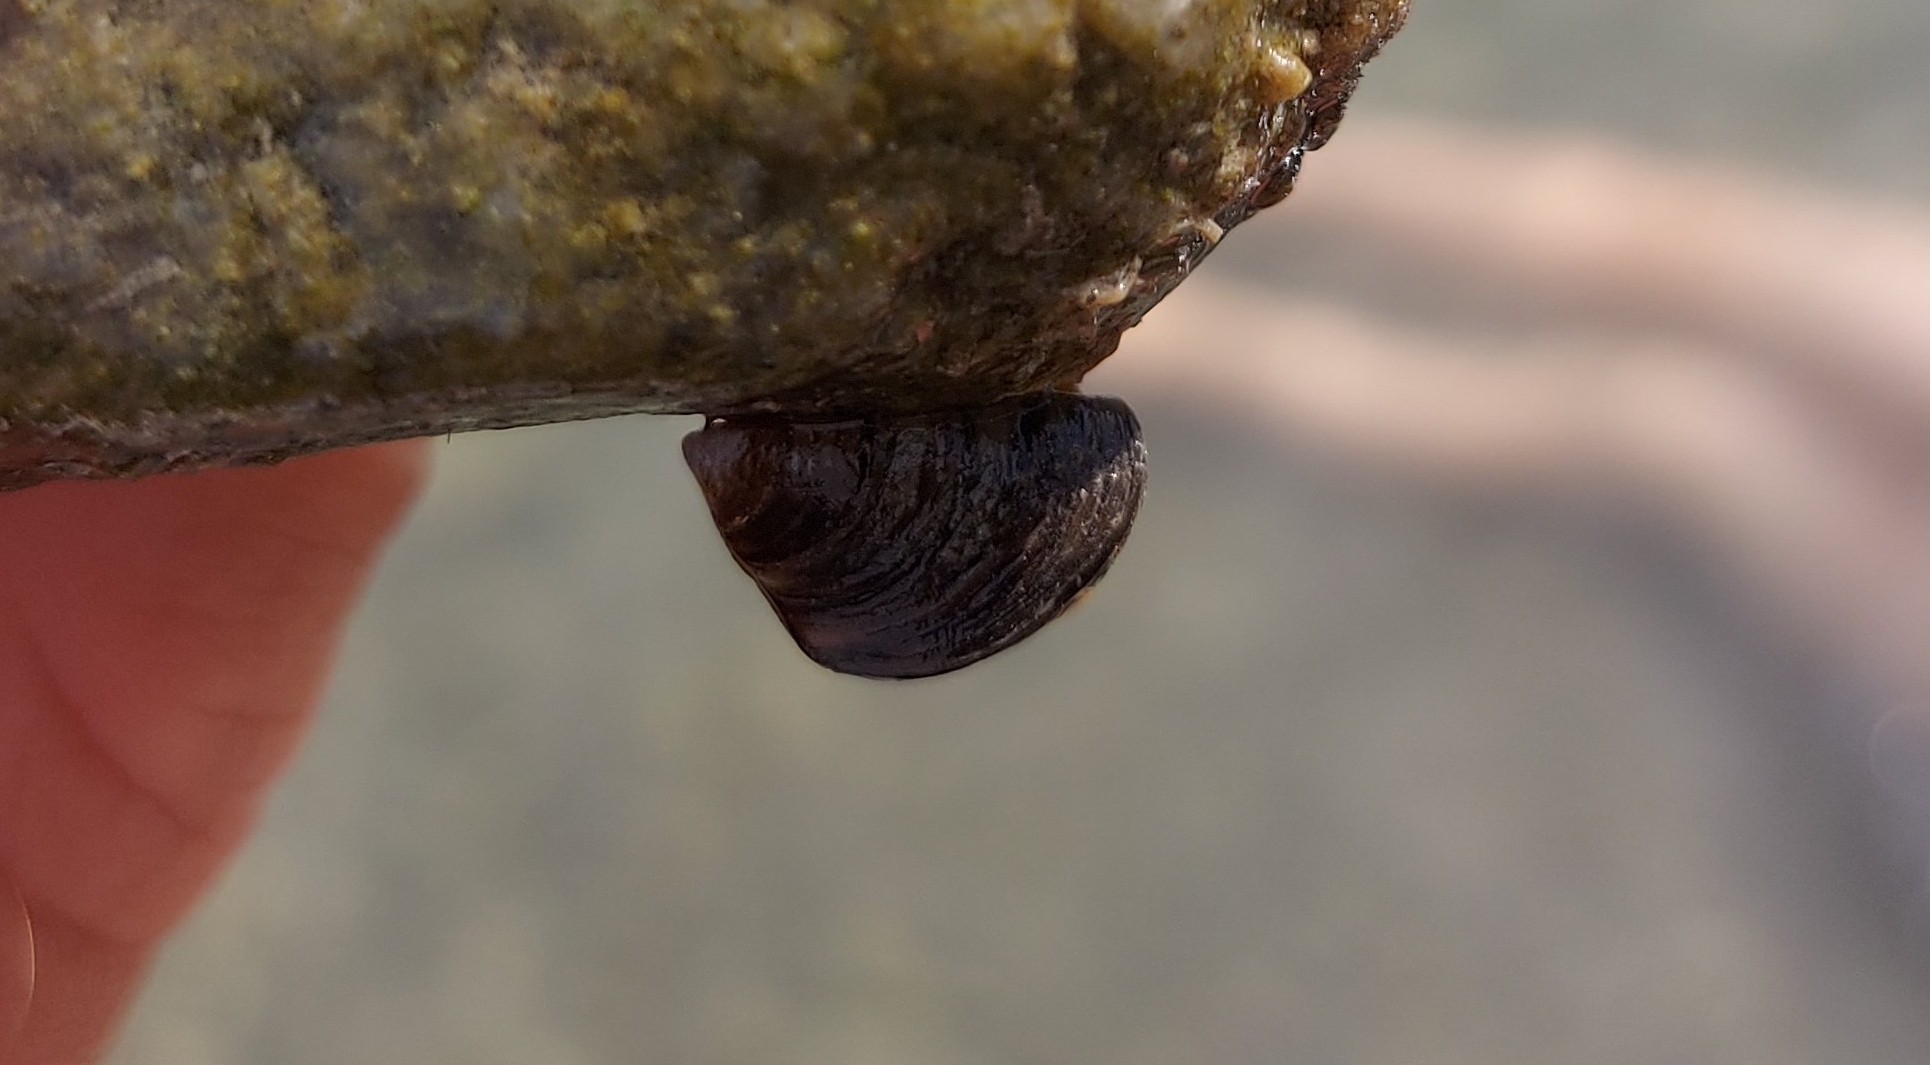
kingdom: Animalia
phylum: Mollusca
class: Bivalvia
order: Myida
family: Dreissenidae
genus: Dreissena
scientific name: Dreissena polymorpha
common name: Zebra mussel
